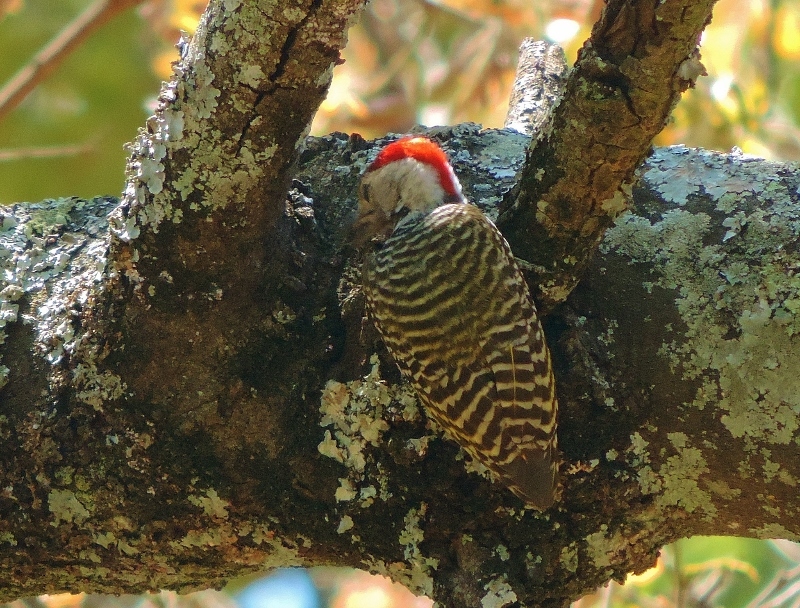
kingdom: Animalia
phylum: Chordata
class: Aves
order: Piciformes
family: Picidae
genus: Dendropicos
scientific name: Dendropicos fuscescens
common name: Cardinal woodpecker
